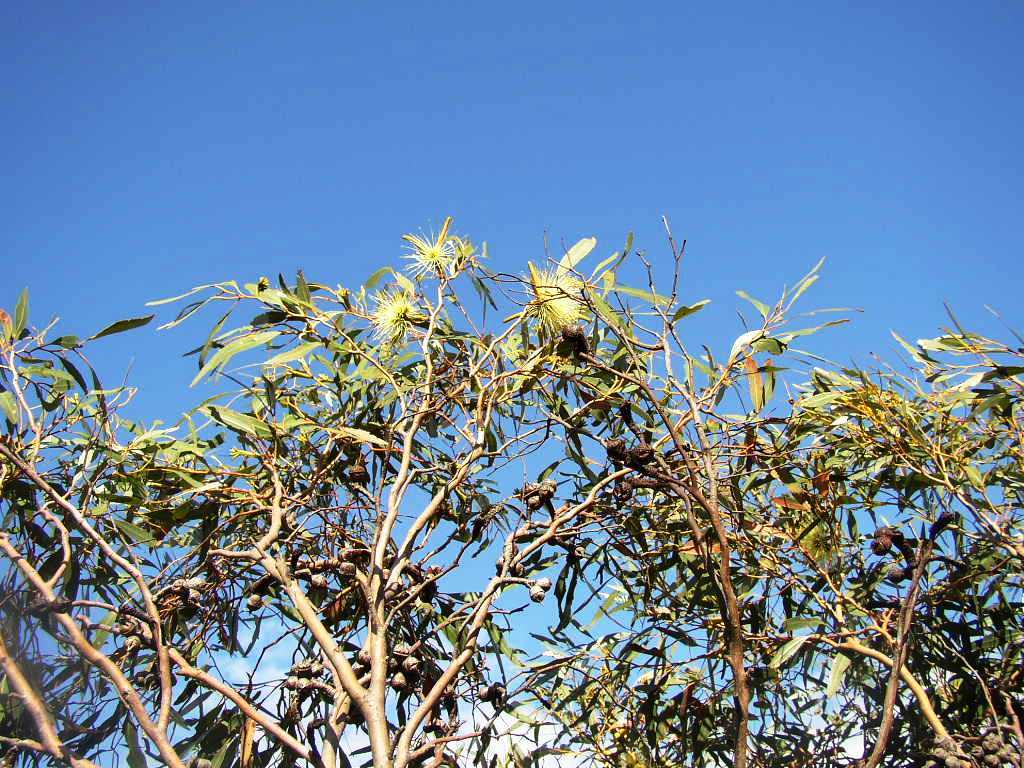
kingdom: Plantae
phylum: Tracheophyta
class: Magnoliopsida
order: Myrtales
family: Myrtaceae
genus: Eucalyptus
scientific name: Eucalyptus talyuberlup
